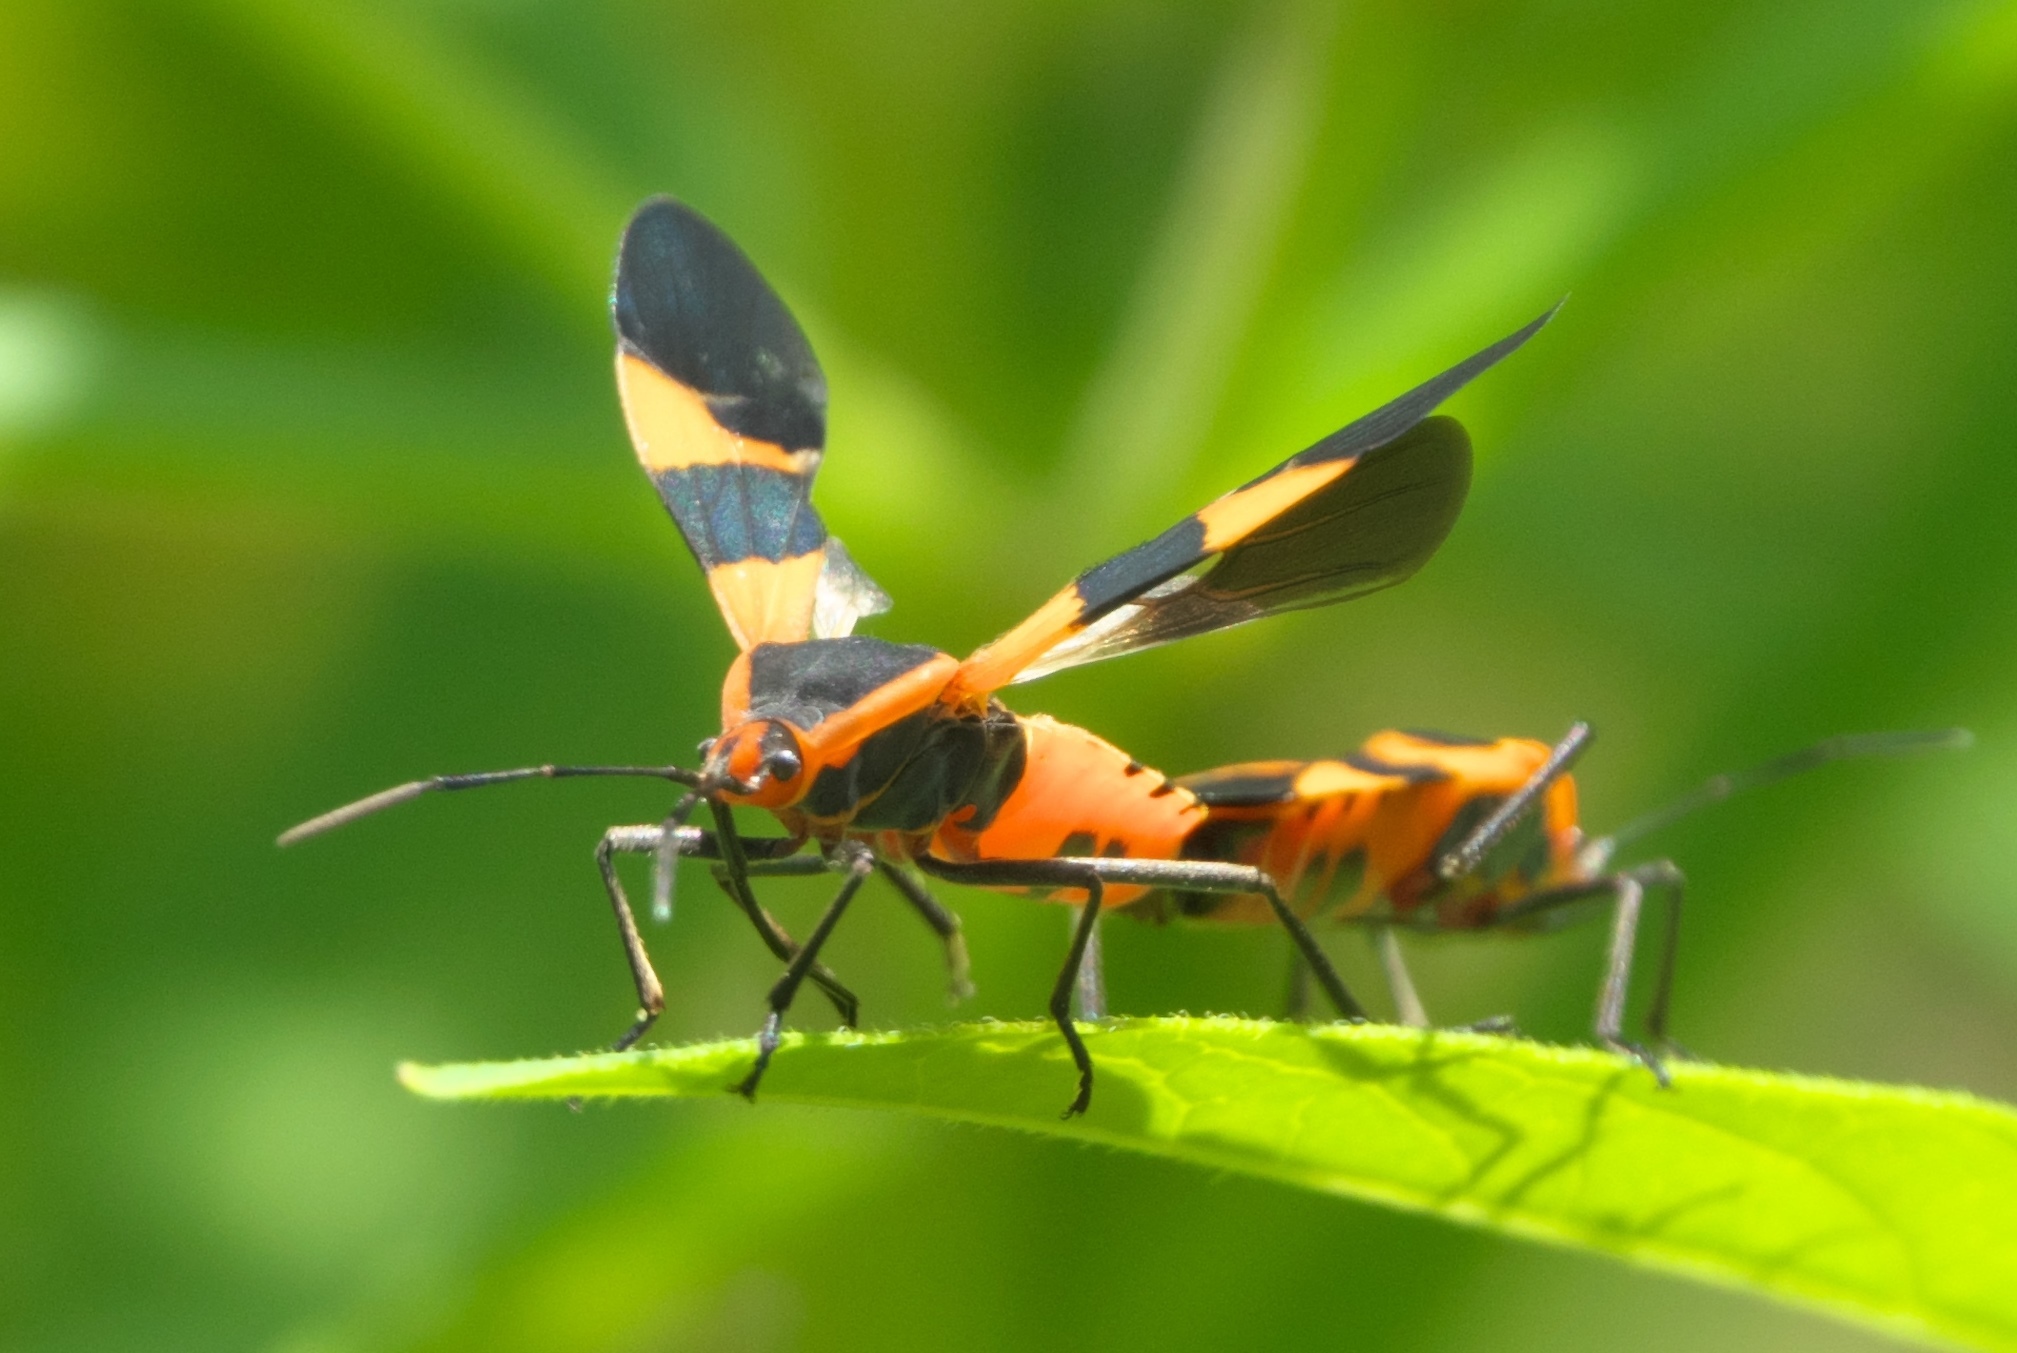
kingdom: Animalia
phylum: Arthropoda
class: Insecta
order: Hemiptera
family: Lygaeidae
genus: Oncopeltus
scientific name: Oncopeltus fasciatus
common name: Large milkweed bug
